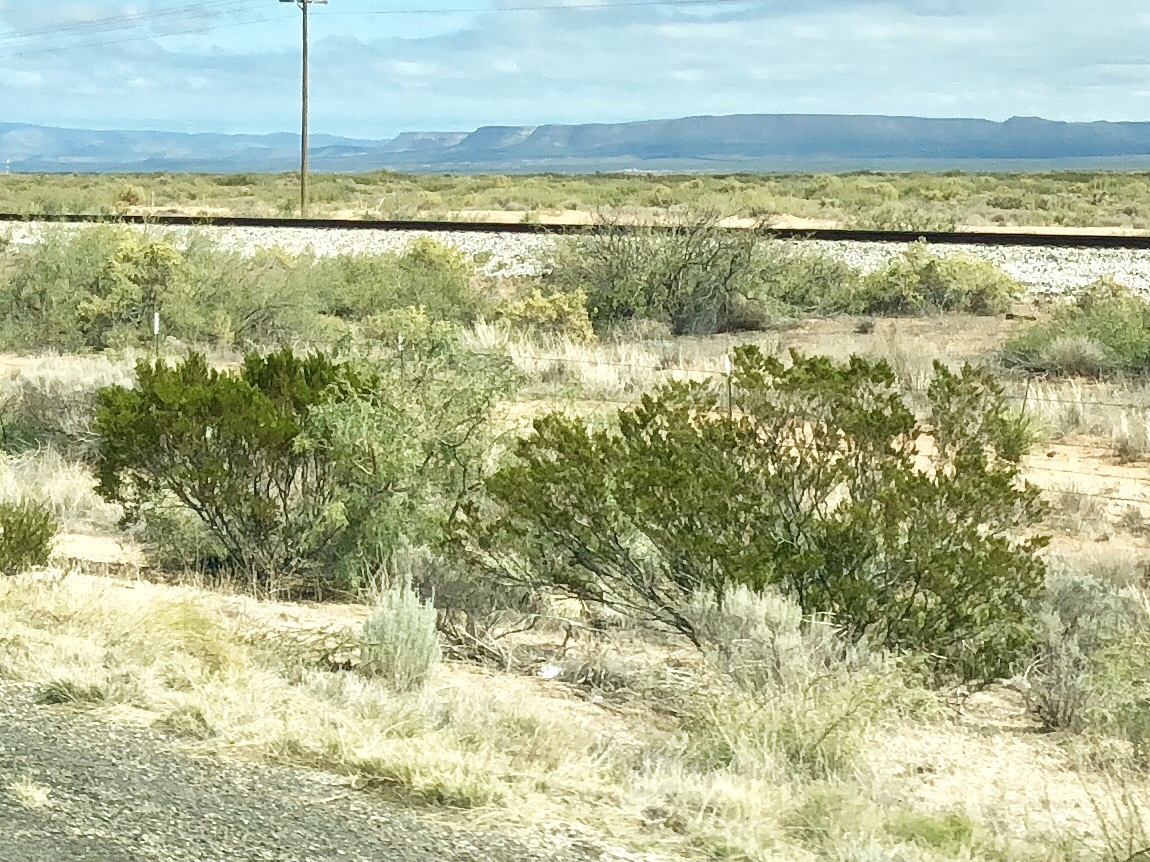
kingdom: Plantae
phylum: Tracheophyta
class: Magnoliopsida
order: Zygophyllales
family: Zygophyllaceae
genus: Larrea
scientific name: Larrea tridentata
